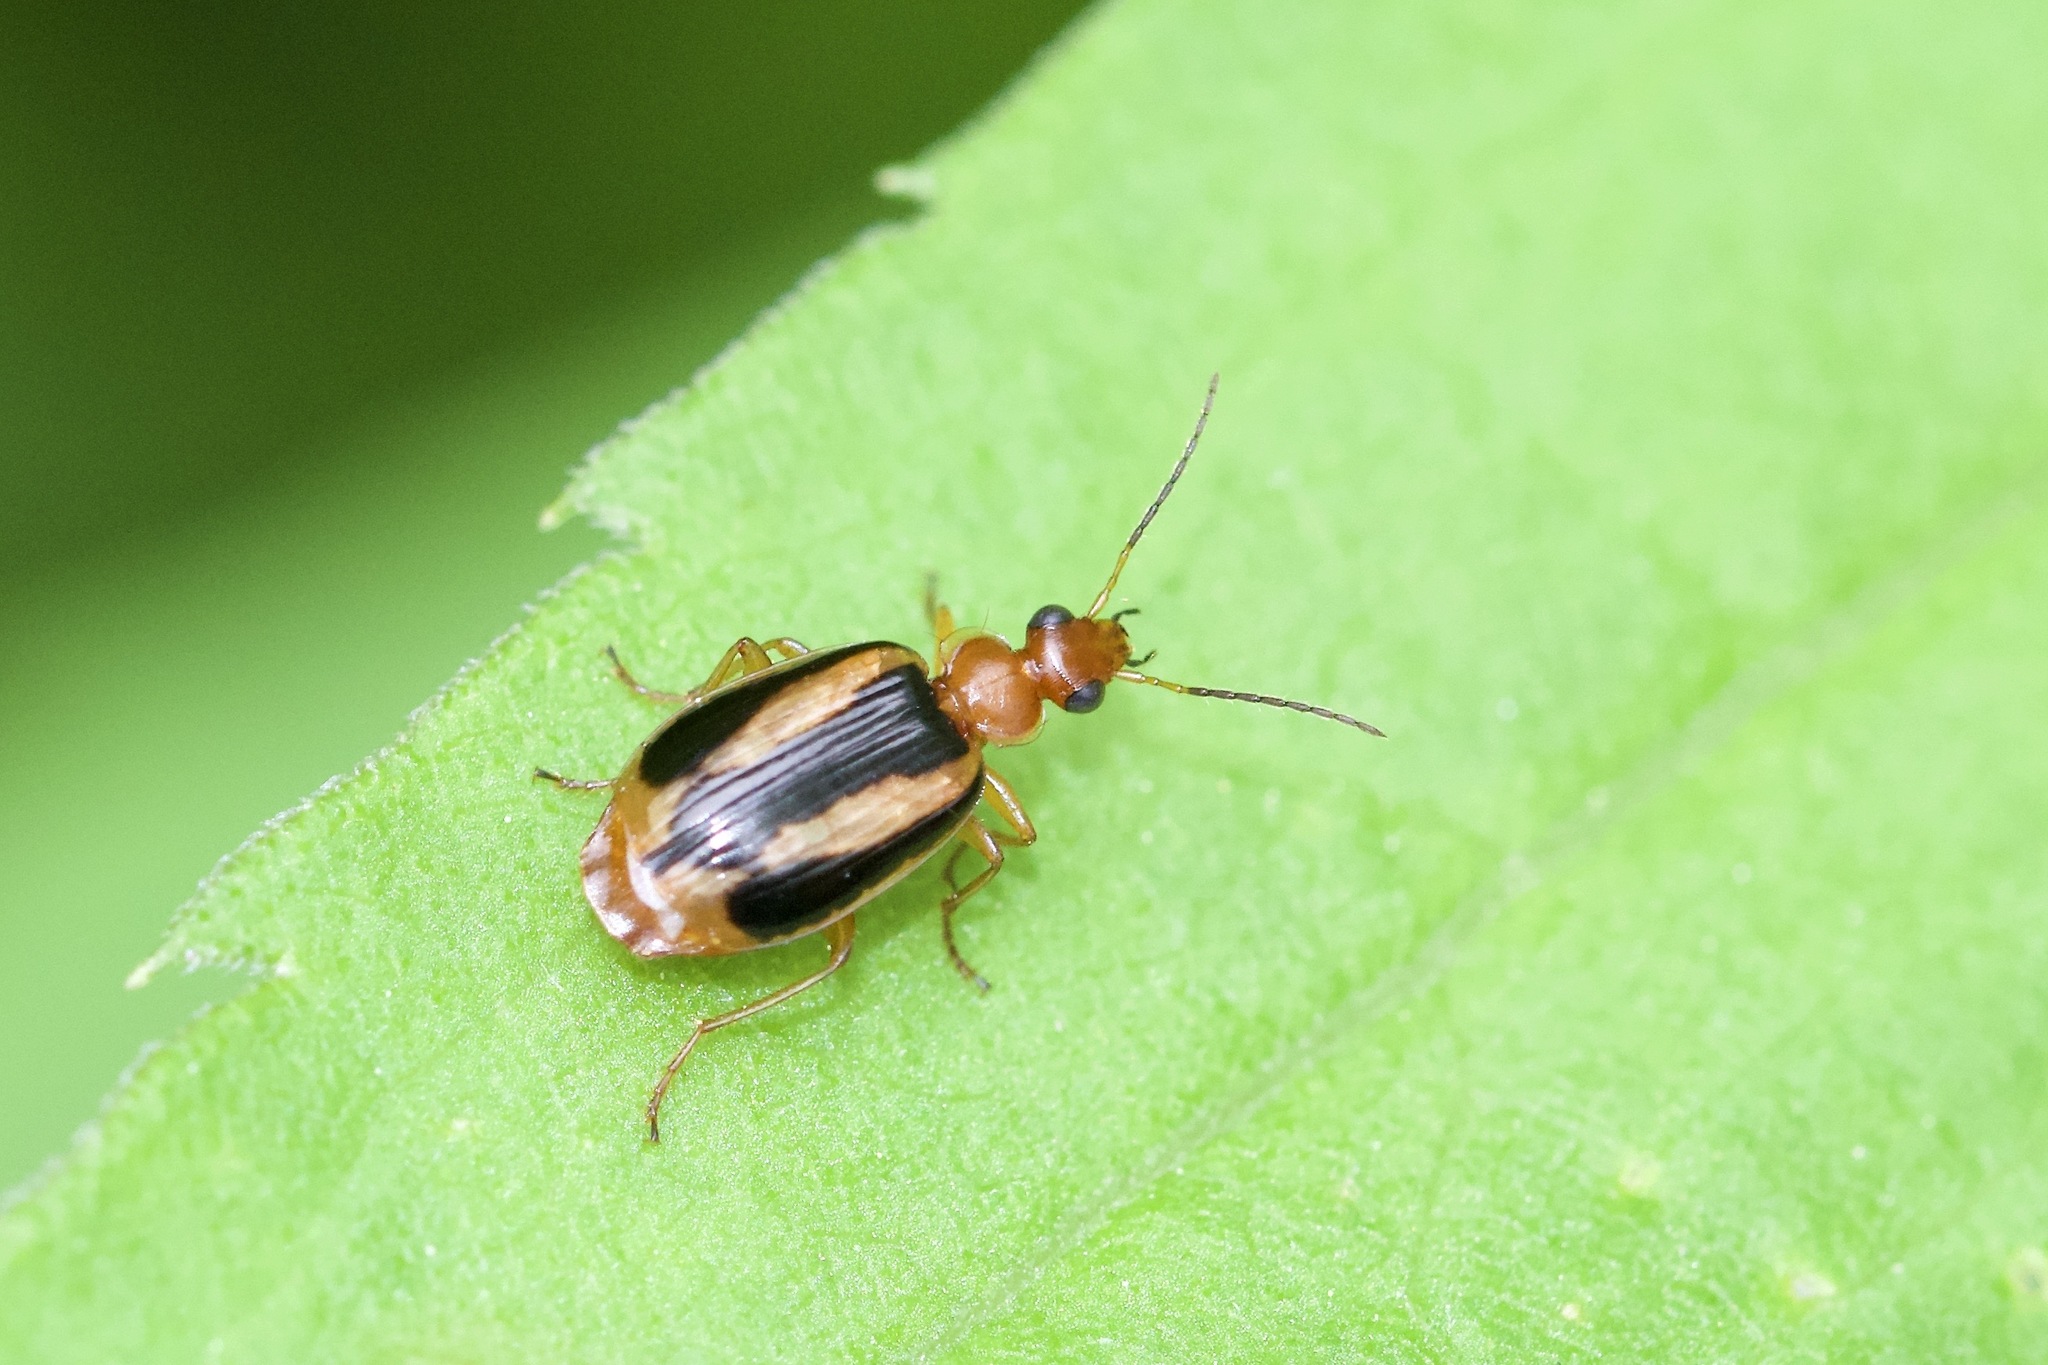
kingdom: Animalia
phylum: Arthropoda
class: Insecta
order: Coleoptera
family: Carabidae
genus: Lebia
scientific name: Lebia solea
